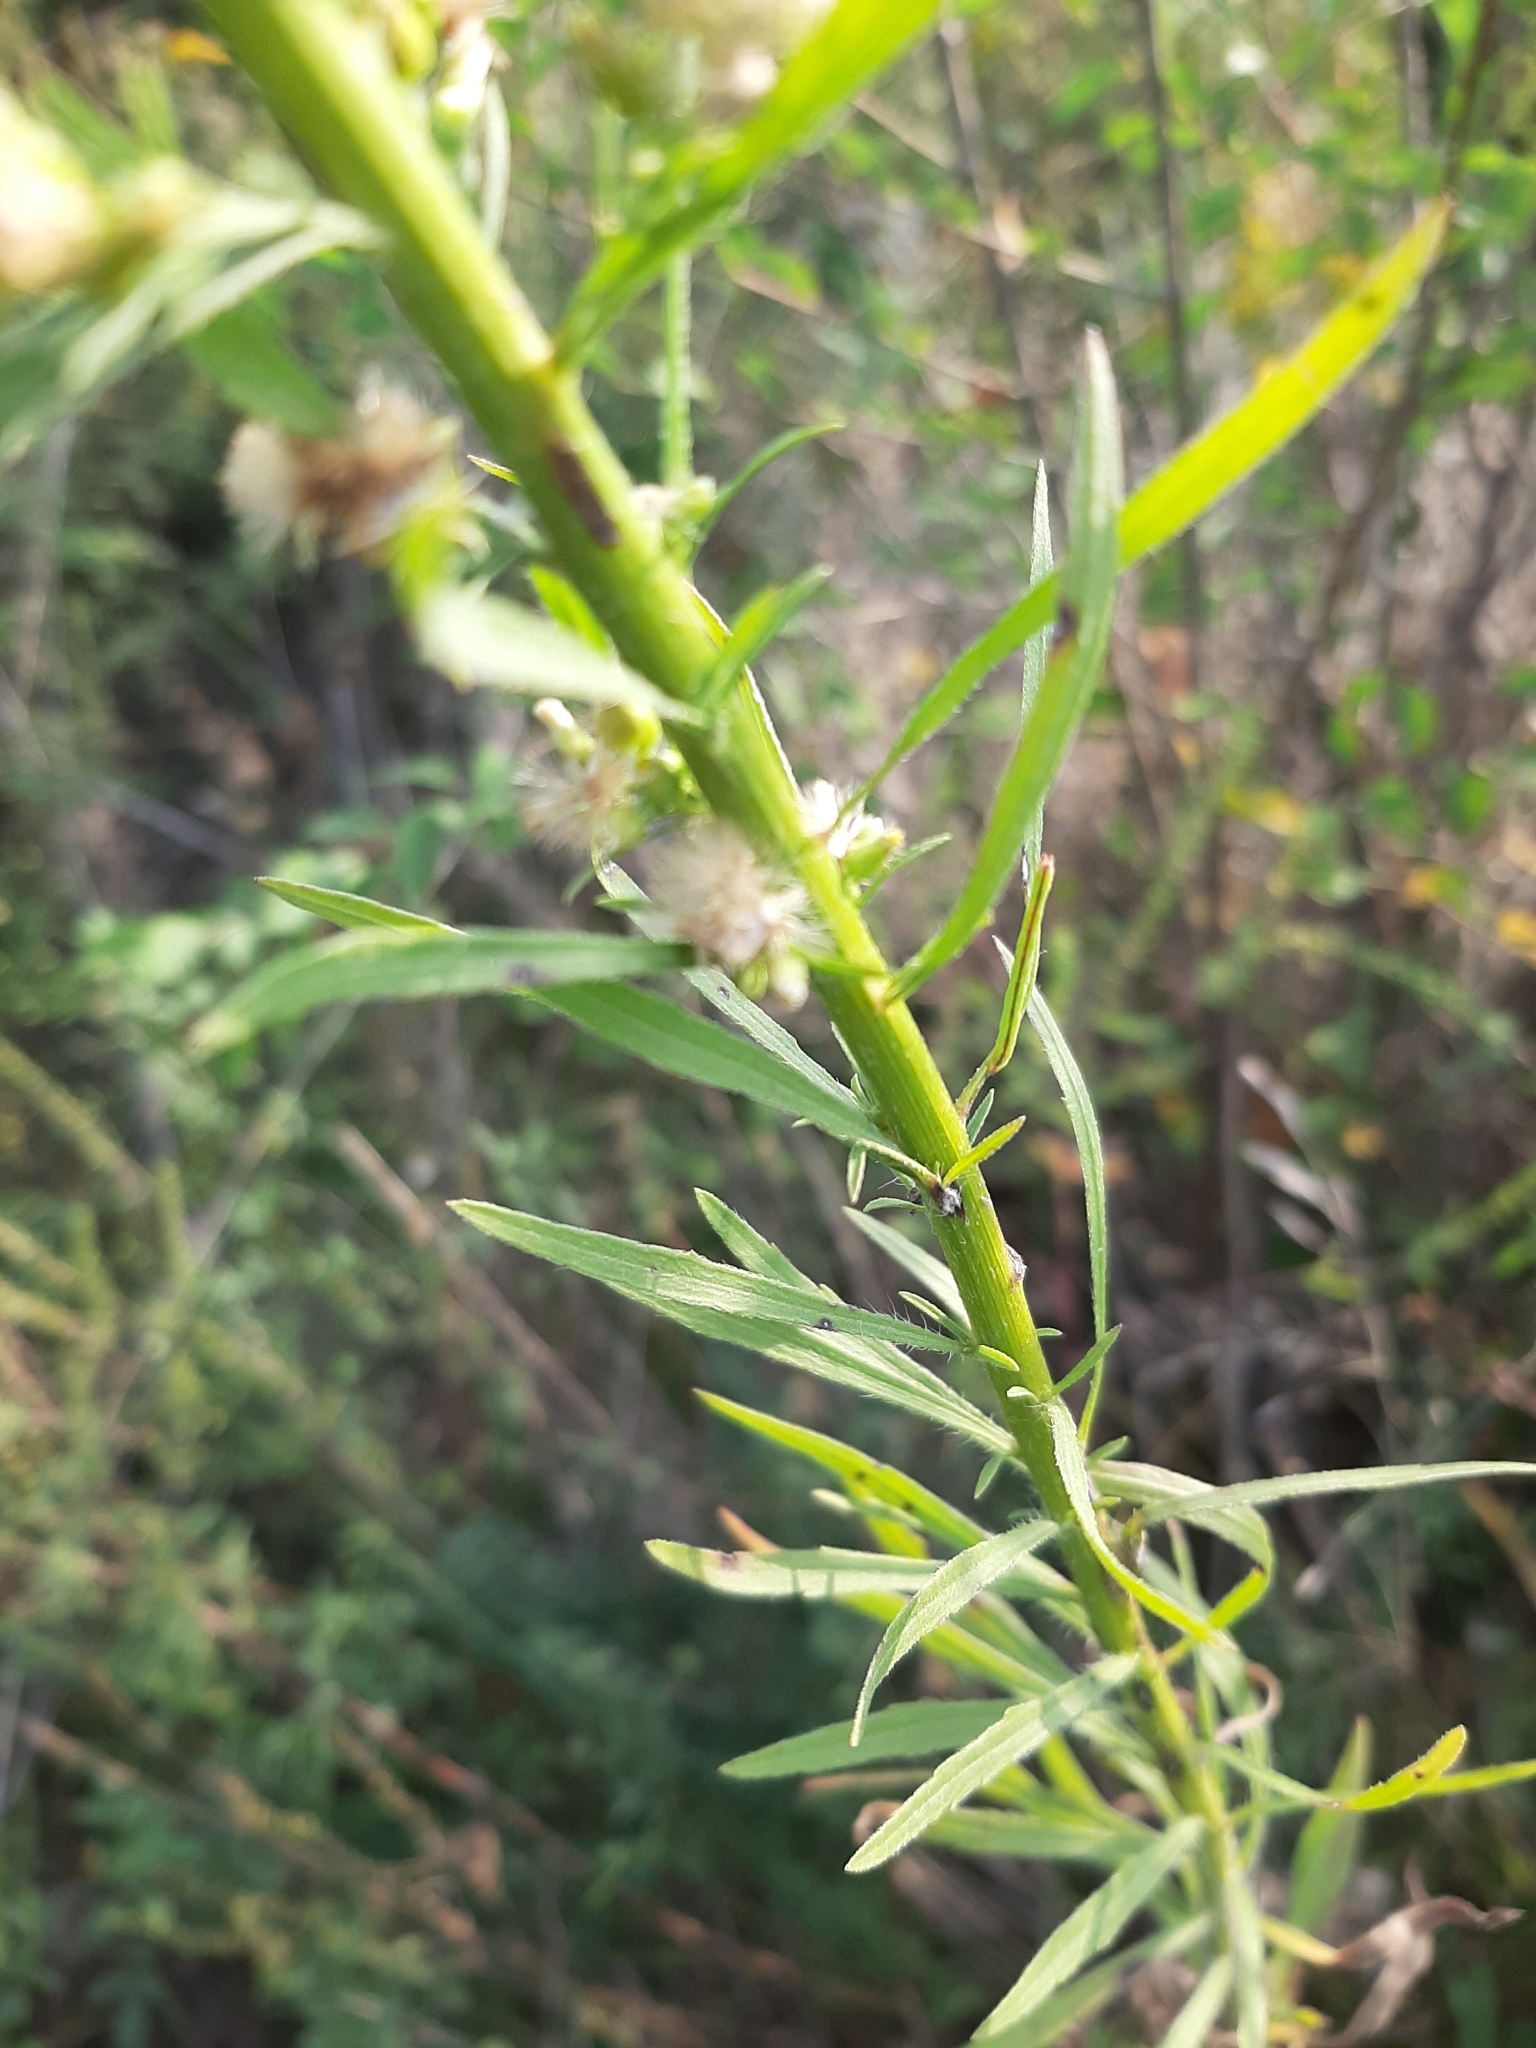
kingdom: Plantae
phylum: Tracheophyta
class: Magnoliopsida
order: Asterales
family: Asteraceae
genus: Erigeron
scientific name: Erigeron canadensis
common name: Canadian fleabane
